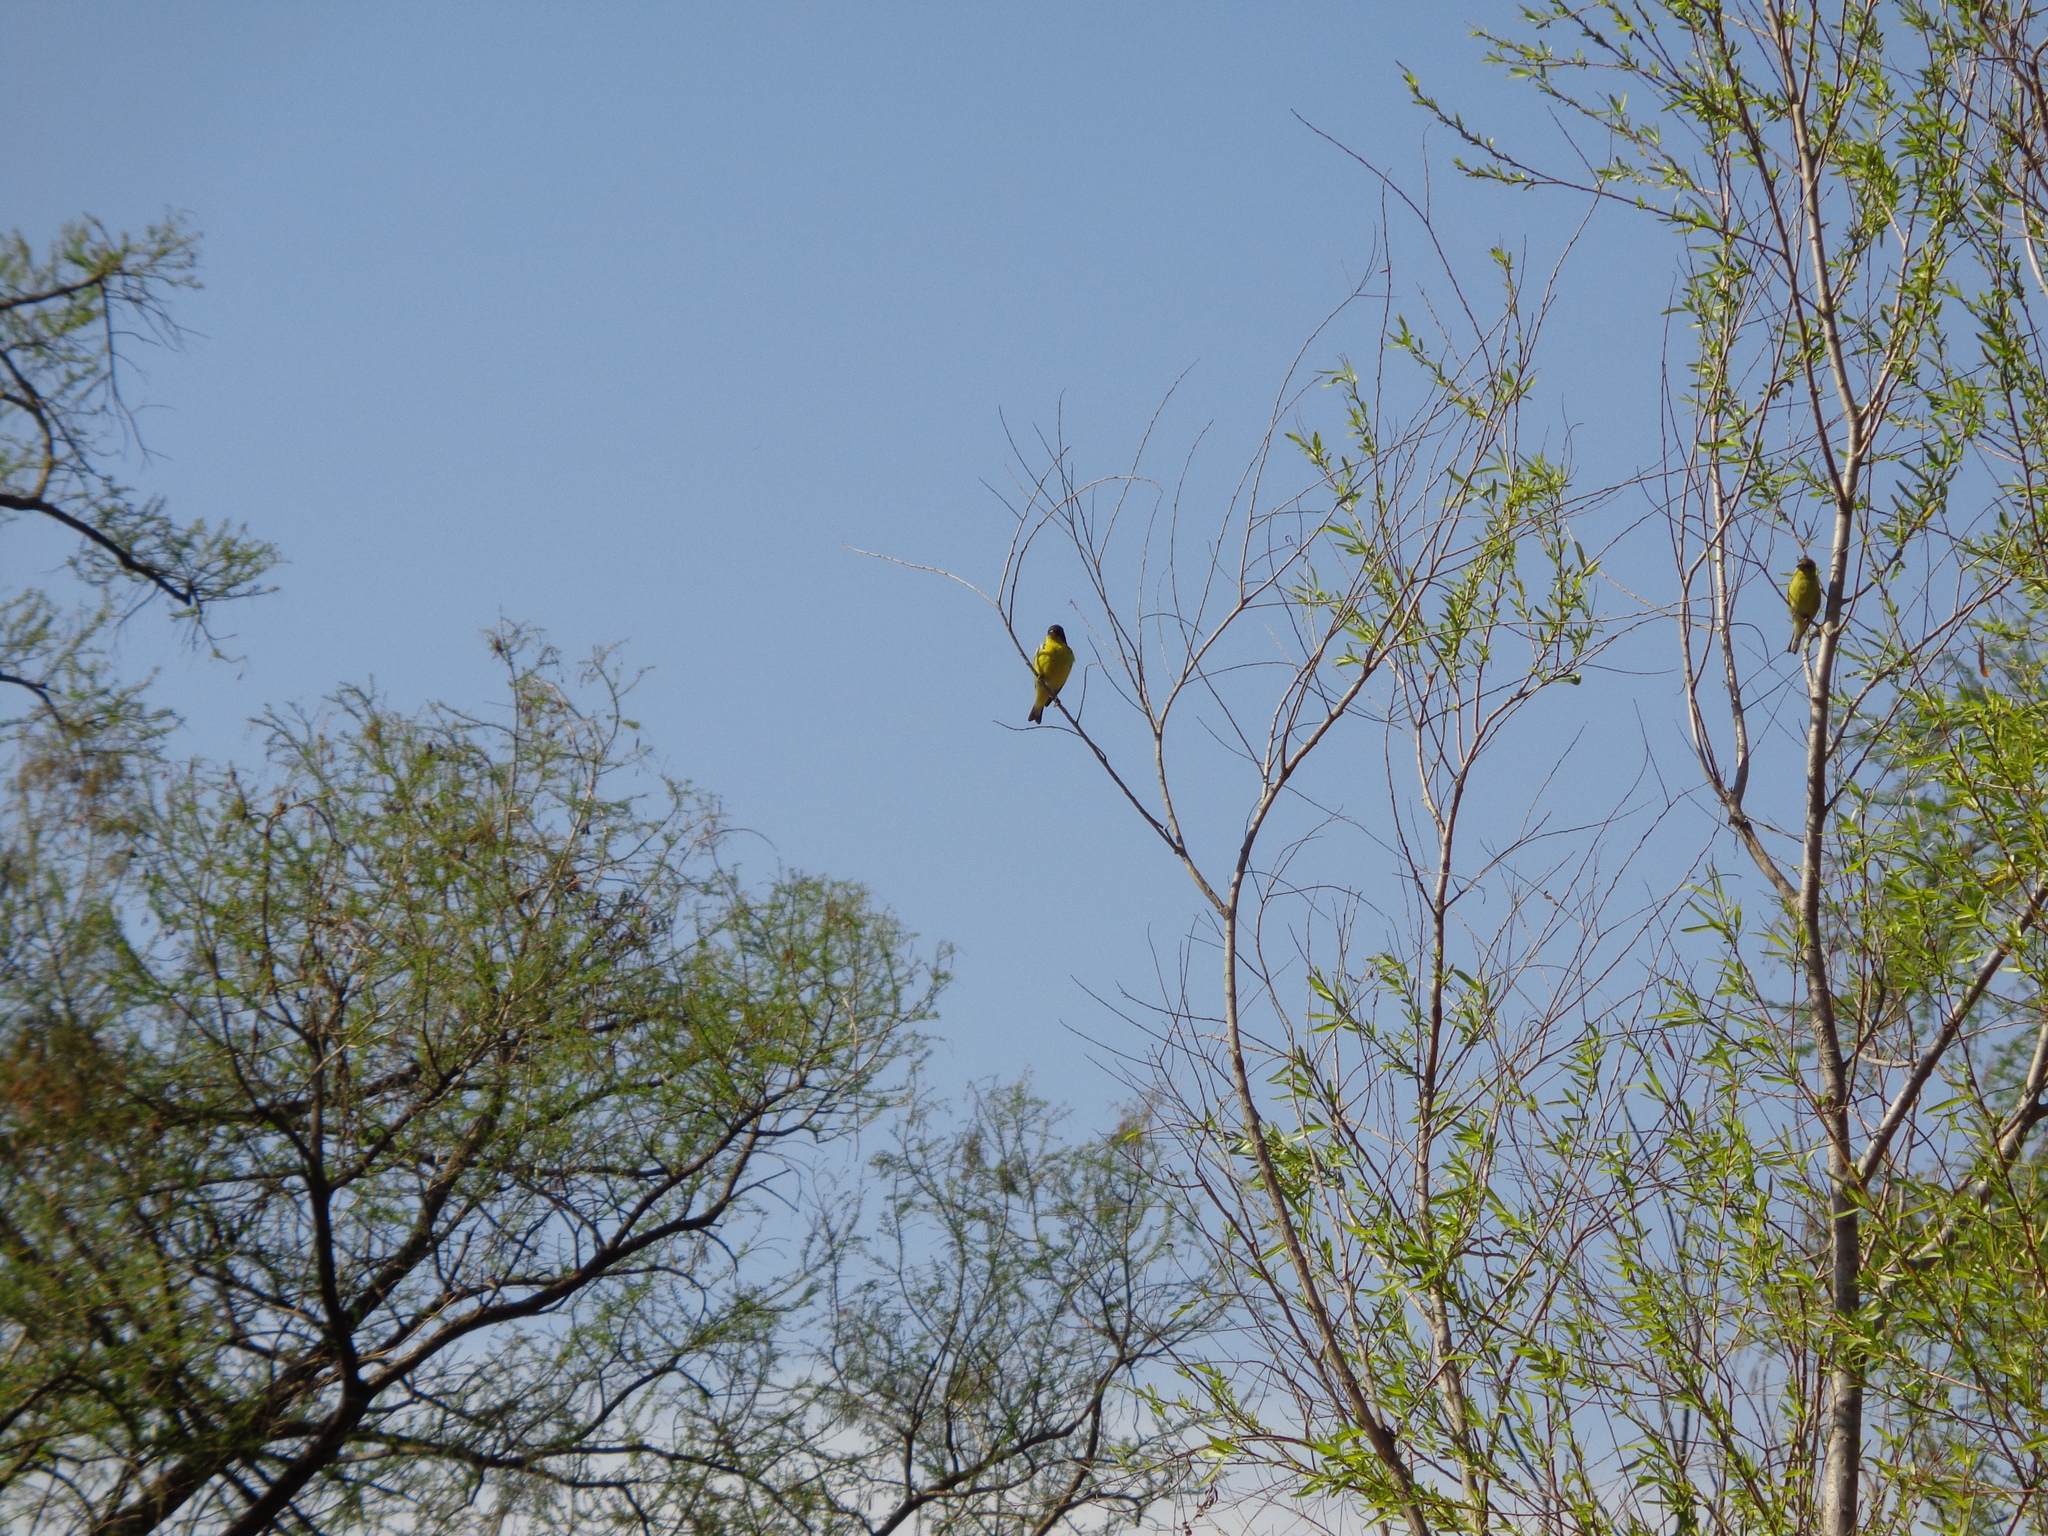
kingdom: Animalia
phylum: Chordata
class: Aves
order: Passeriformes
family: Fringillidae
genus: Spinus
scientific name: Spinus psaltria
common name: Lesser goldfinch
